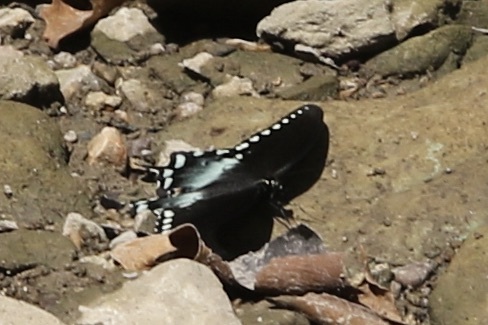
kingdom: Animalia
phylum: Arthropoda
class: Insecta
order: Lepidoptera
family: Papilionidae
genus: Papilio
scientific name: Papilio troilus
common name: Spicebush swallowtail
